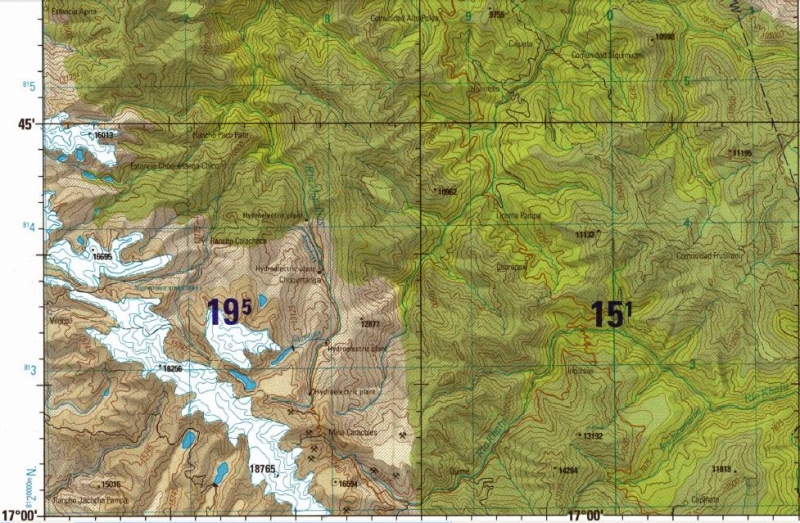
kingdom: Animalia
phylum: Chordata
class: Aves
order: Passeriformes
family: Hirundinidae
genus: Notiochelidon
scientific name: Notiochelidon cyanoleuca
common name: Blue-and-white swallow
